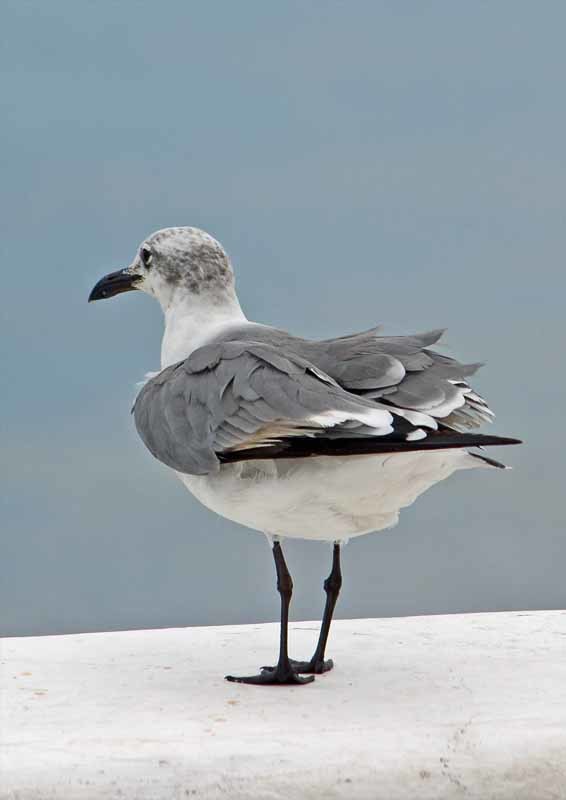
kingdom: Animalia
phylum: Chordata
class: Aves
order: Charadriiformes
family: Laridae
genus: Leucophaeus
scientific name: Leucophaeus atricilla
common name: Laughing gull
